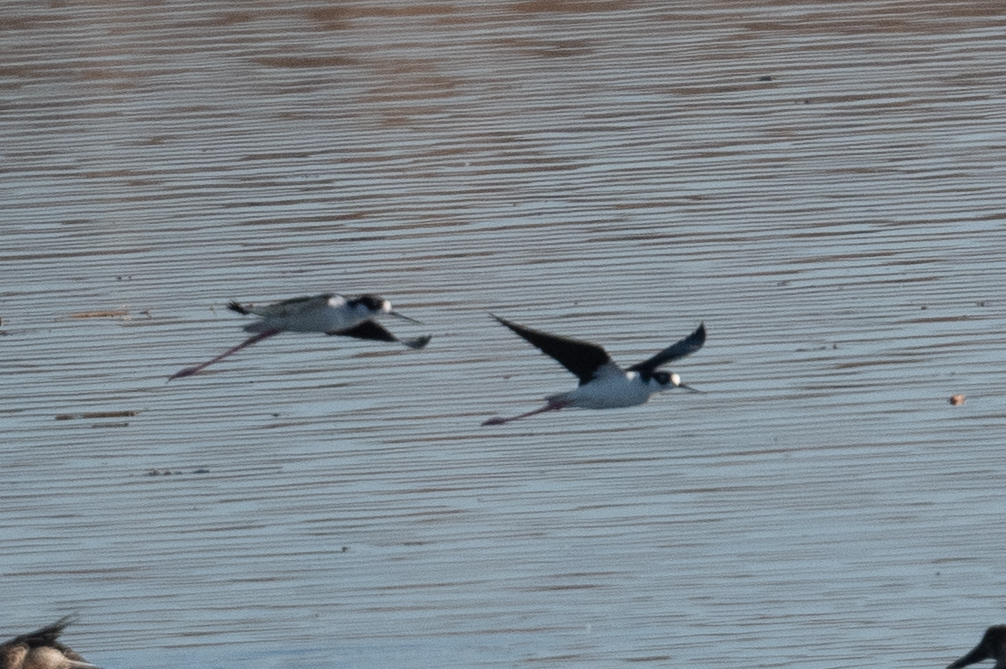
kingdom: Animalia
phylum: Chordata
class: Aves
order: Charadriiformes
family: Recurvirostridae
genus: Himantopus
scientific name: Himantopus mexicanus
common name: Black-necked stilt
